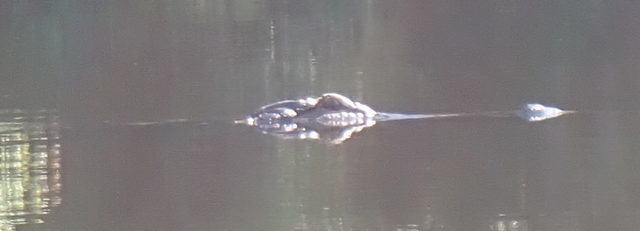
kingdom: Animalia
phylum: Chordata
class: Crocodylia
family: Alligatoridae
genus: Alligator
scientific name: Alligator mississippiensis
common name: American alligator
